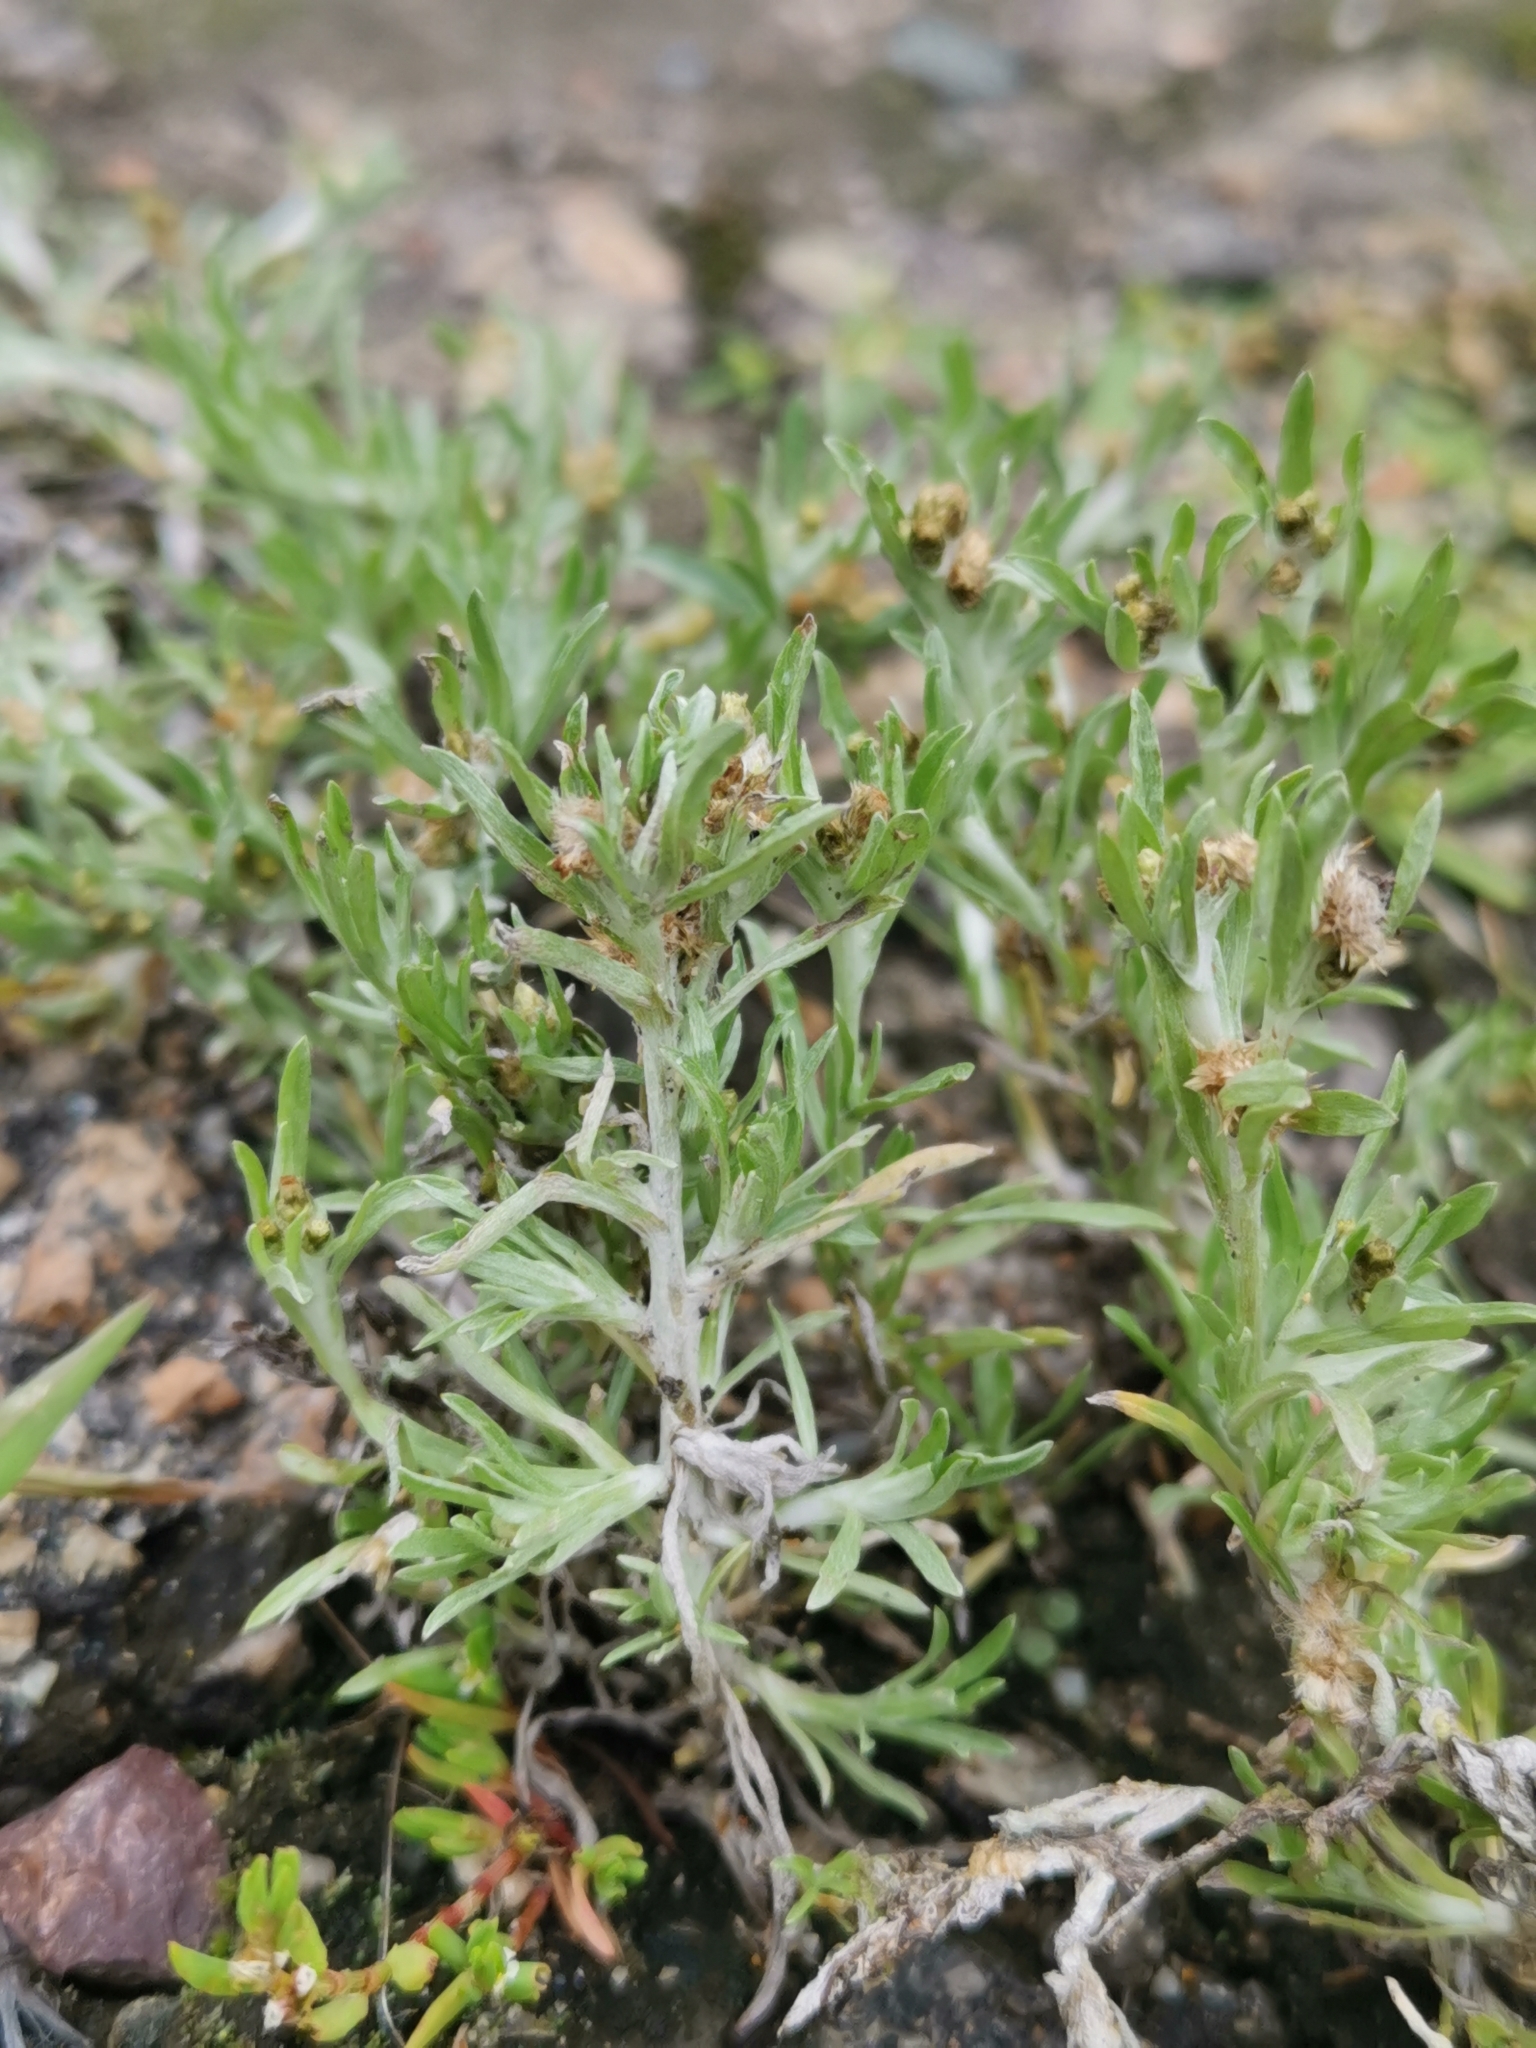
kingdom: Plantae
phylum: Tracheophyta
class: Magnoliopsida
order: Asterales
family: Asteraceae
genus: Gnaphalium
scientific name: Gnaphalium uliginosum
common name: Marsh cudweed
